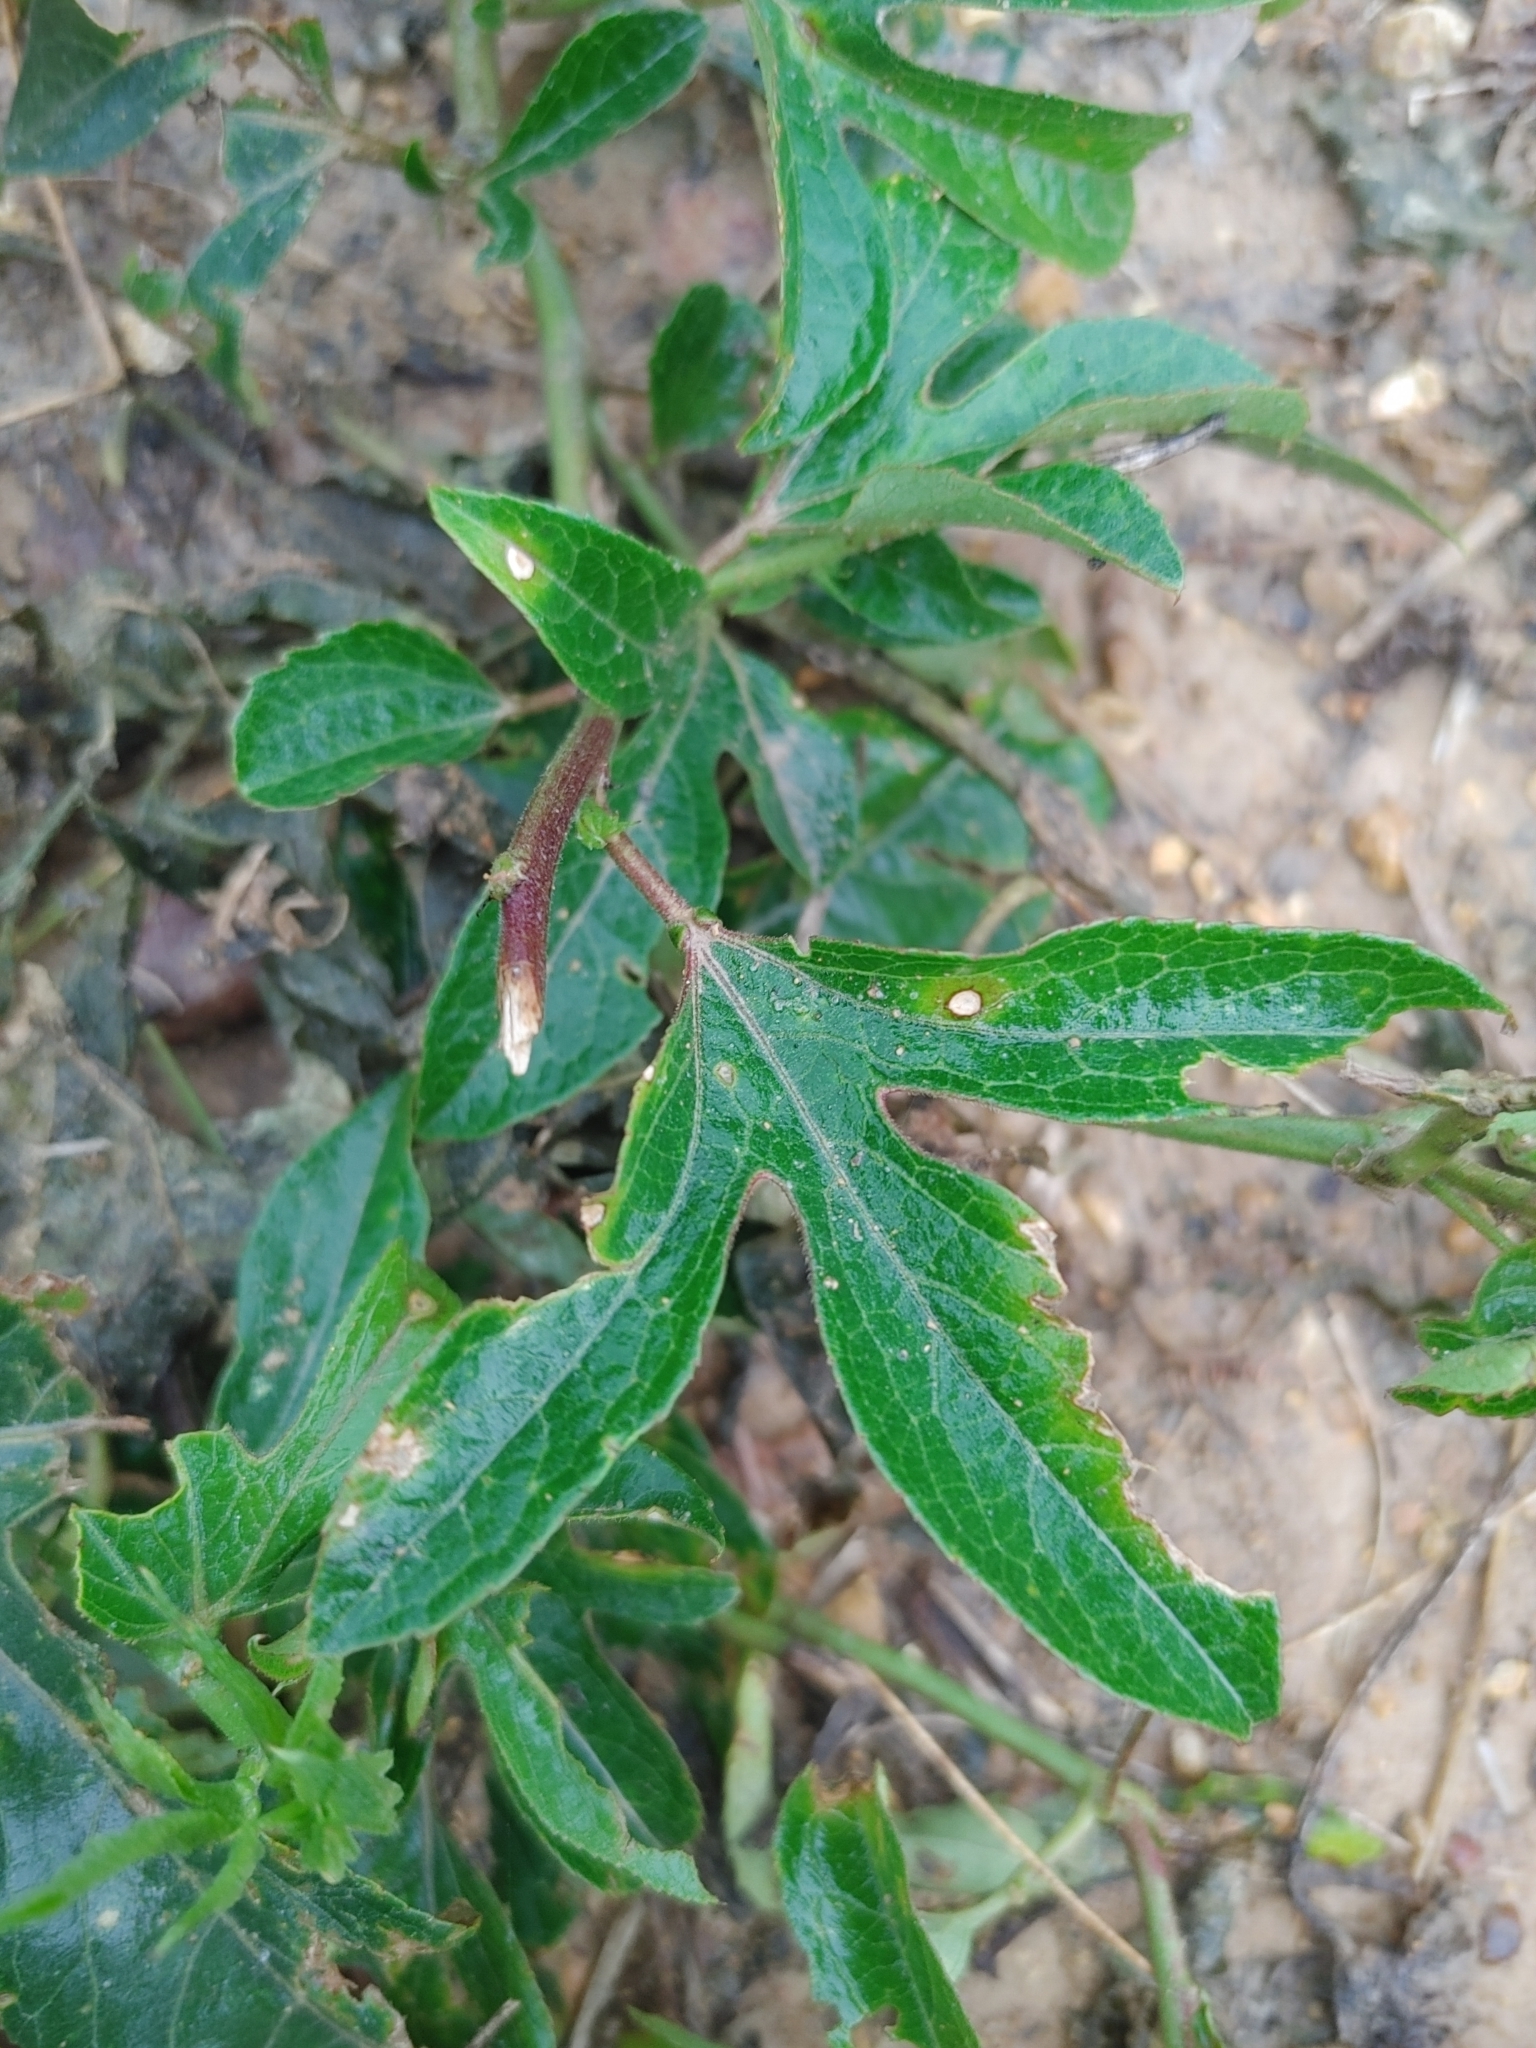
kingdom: Plantae
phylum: Tracheophyta
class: Magnoliopsida
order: Malpighiales
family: Passifloraceae
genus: Passiflora
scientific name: Passiflora incarnata
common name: Apricot-vine
